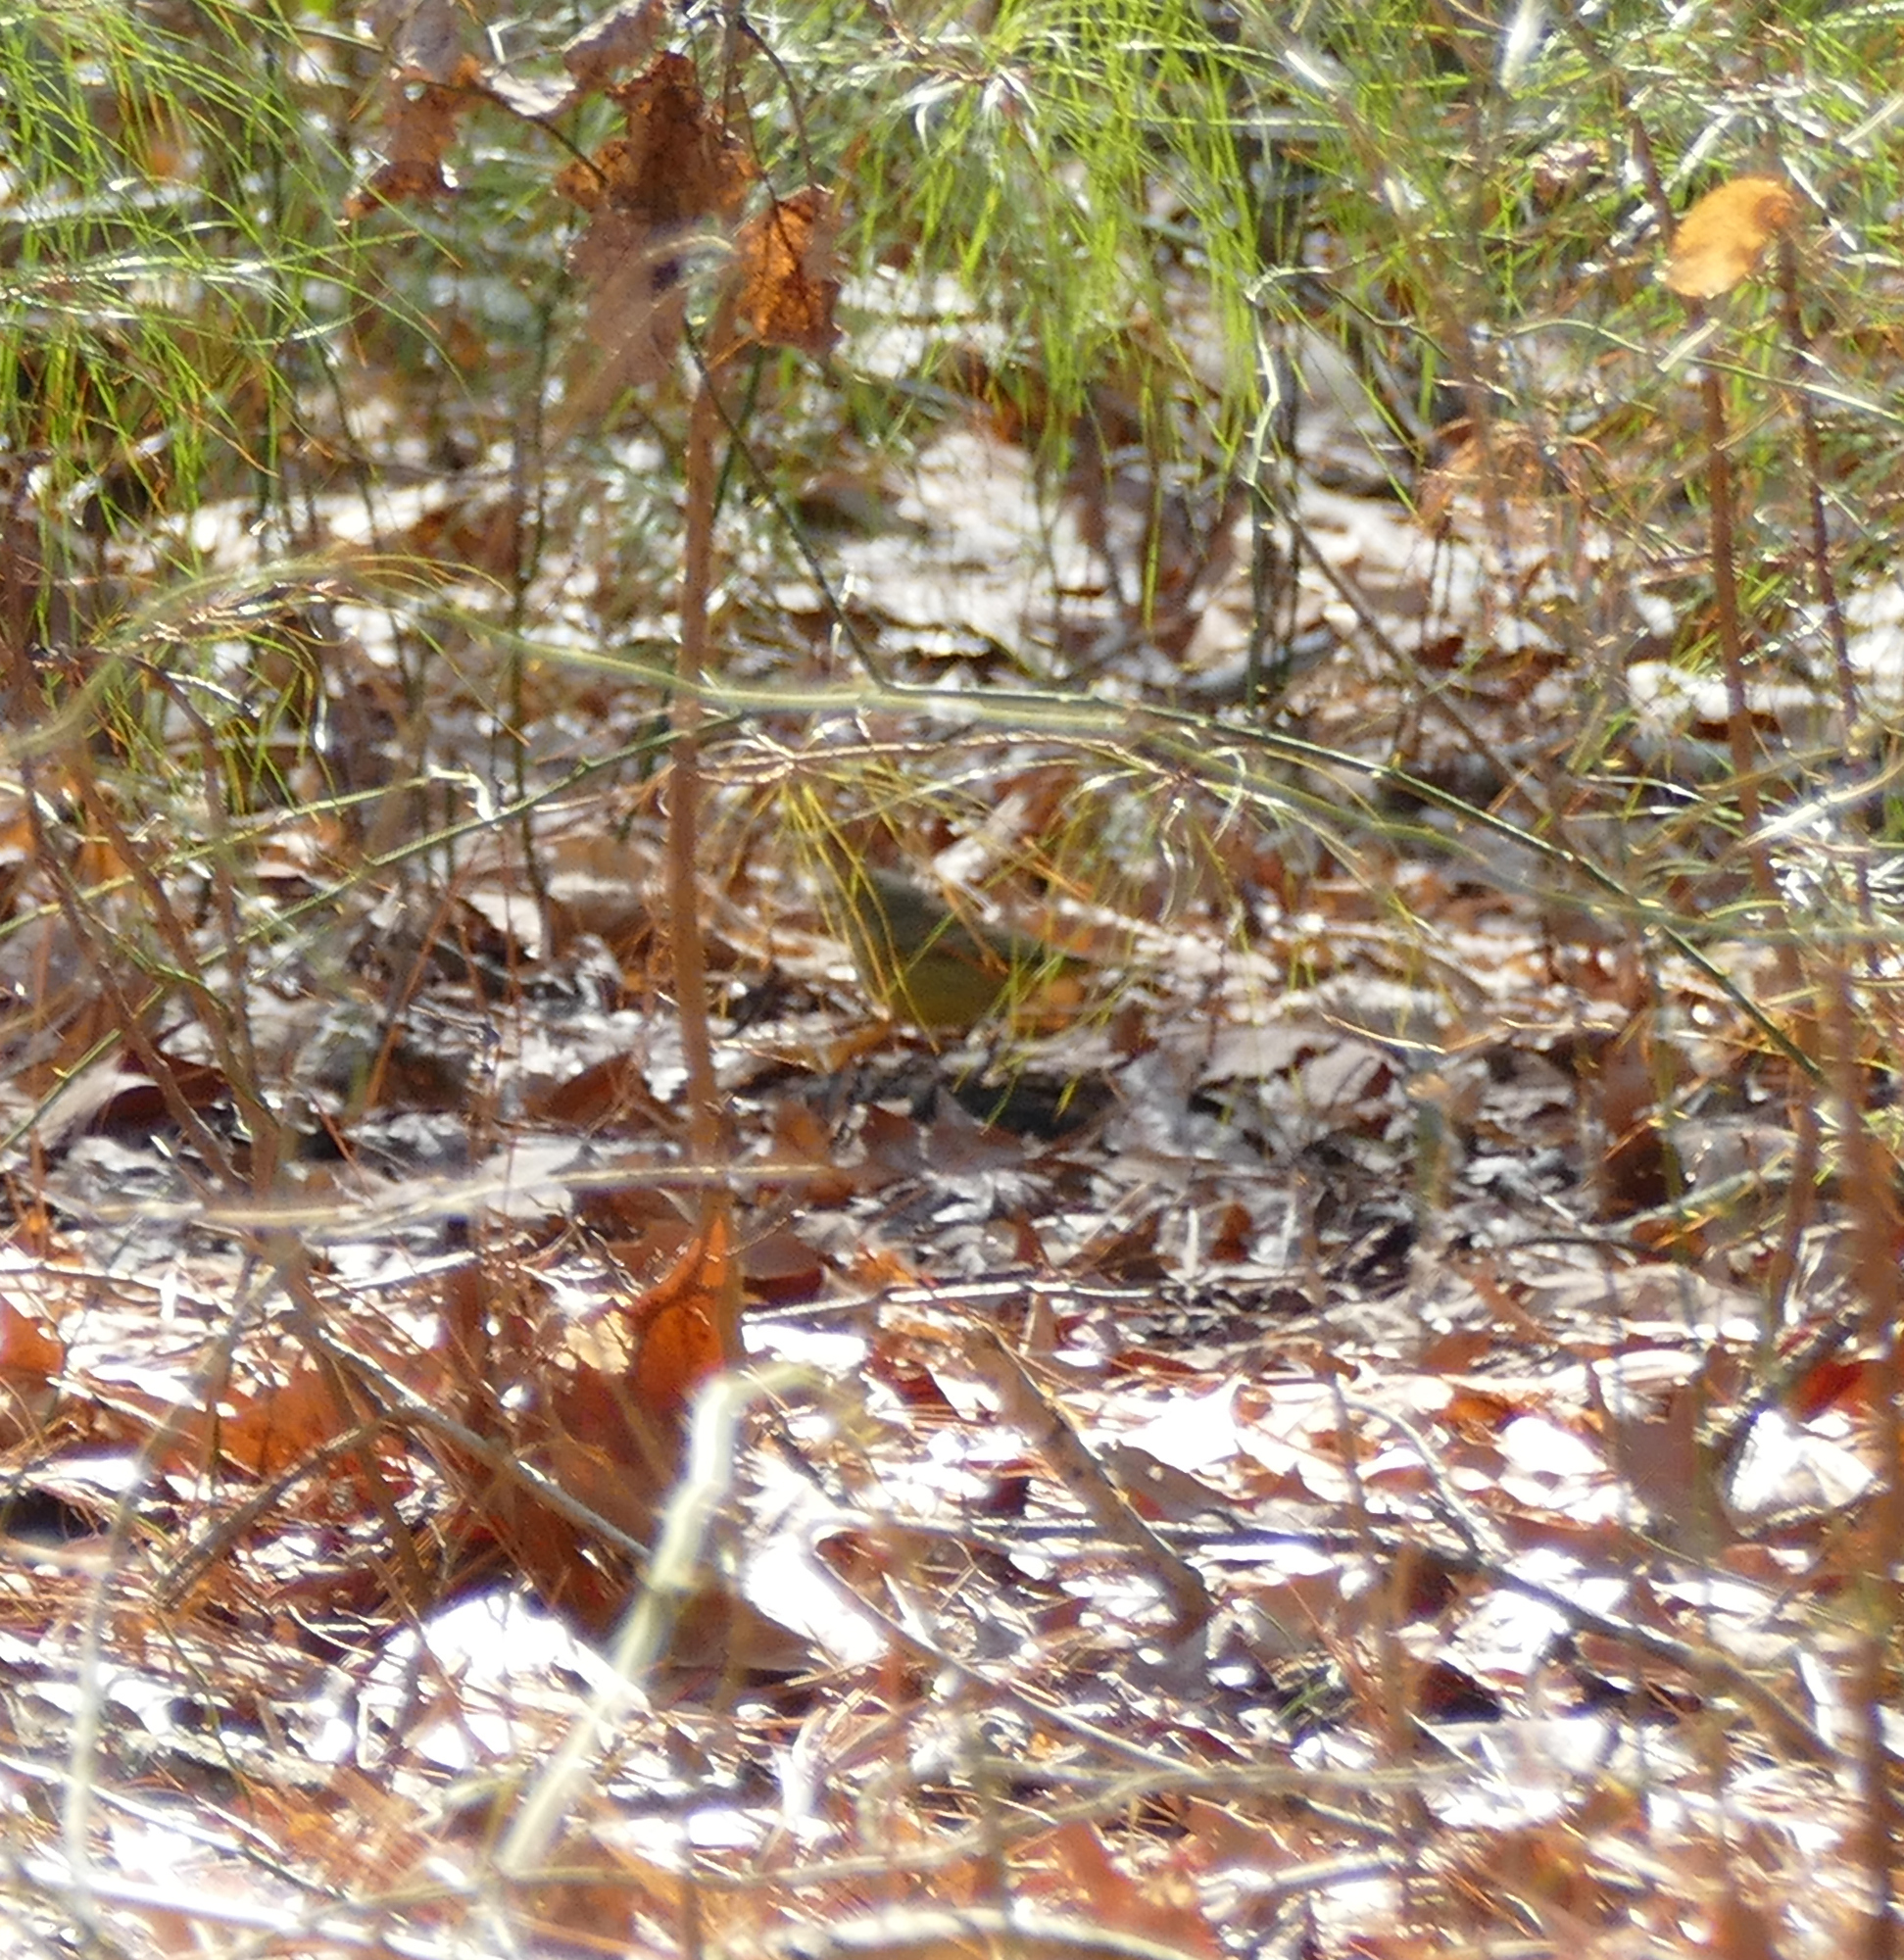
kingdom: Animalia
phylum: Chordata
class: Aves
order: Passeriformes
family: Parulidae
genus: Setophaga
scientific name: Setophaga palmarum
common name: Palm warbler
